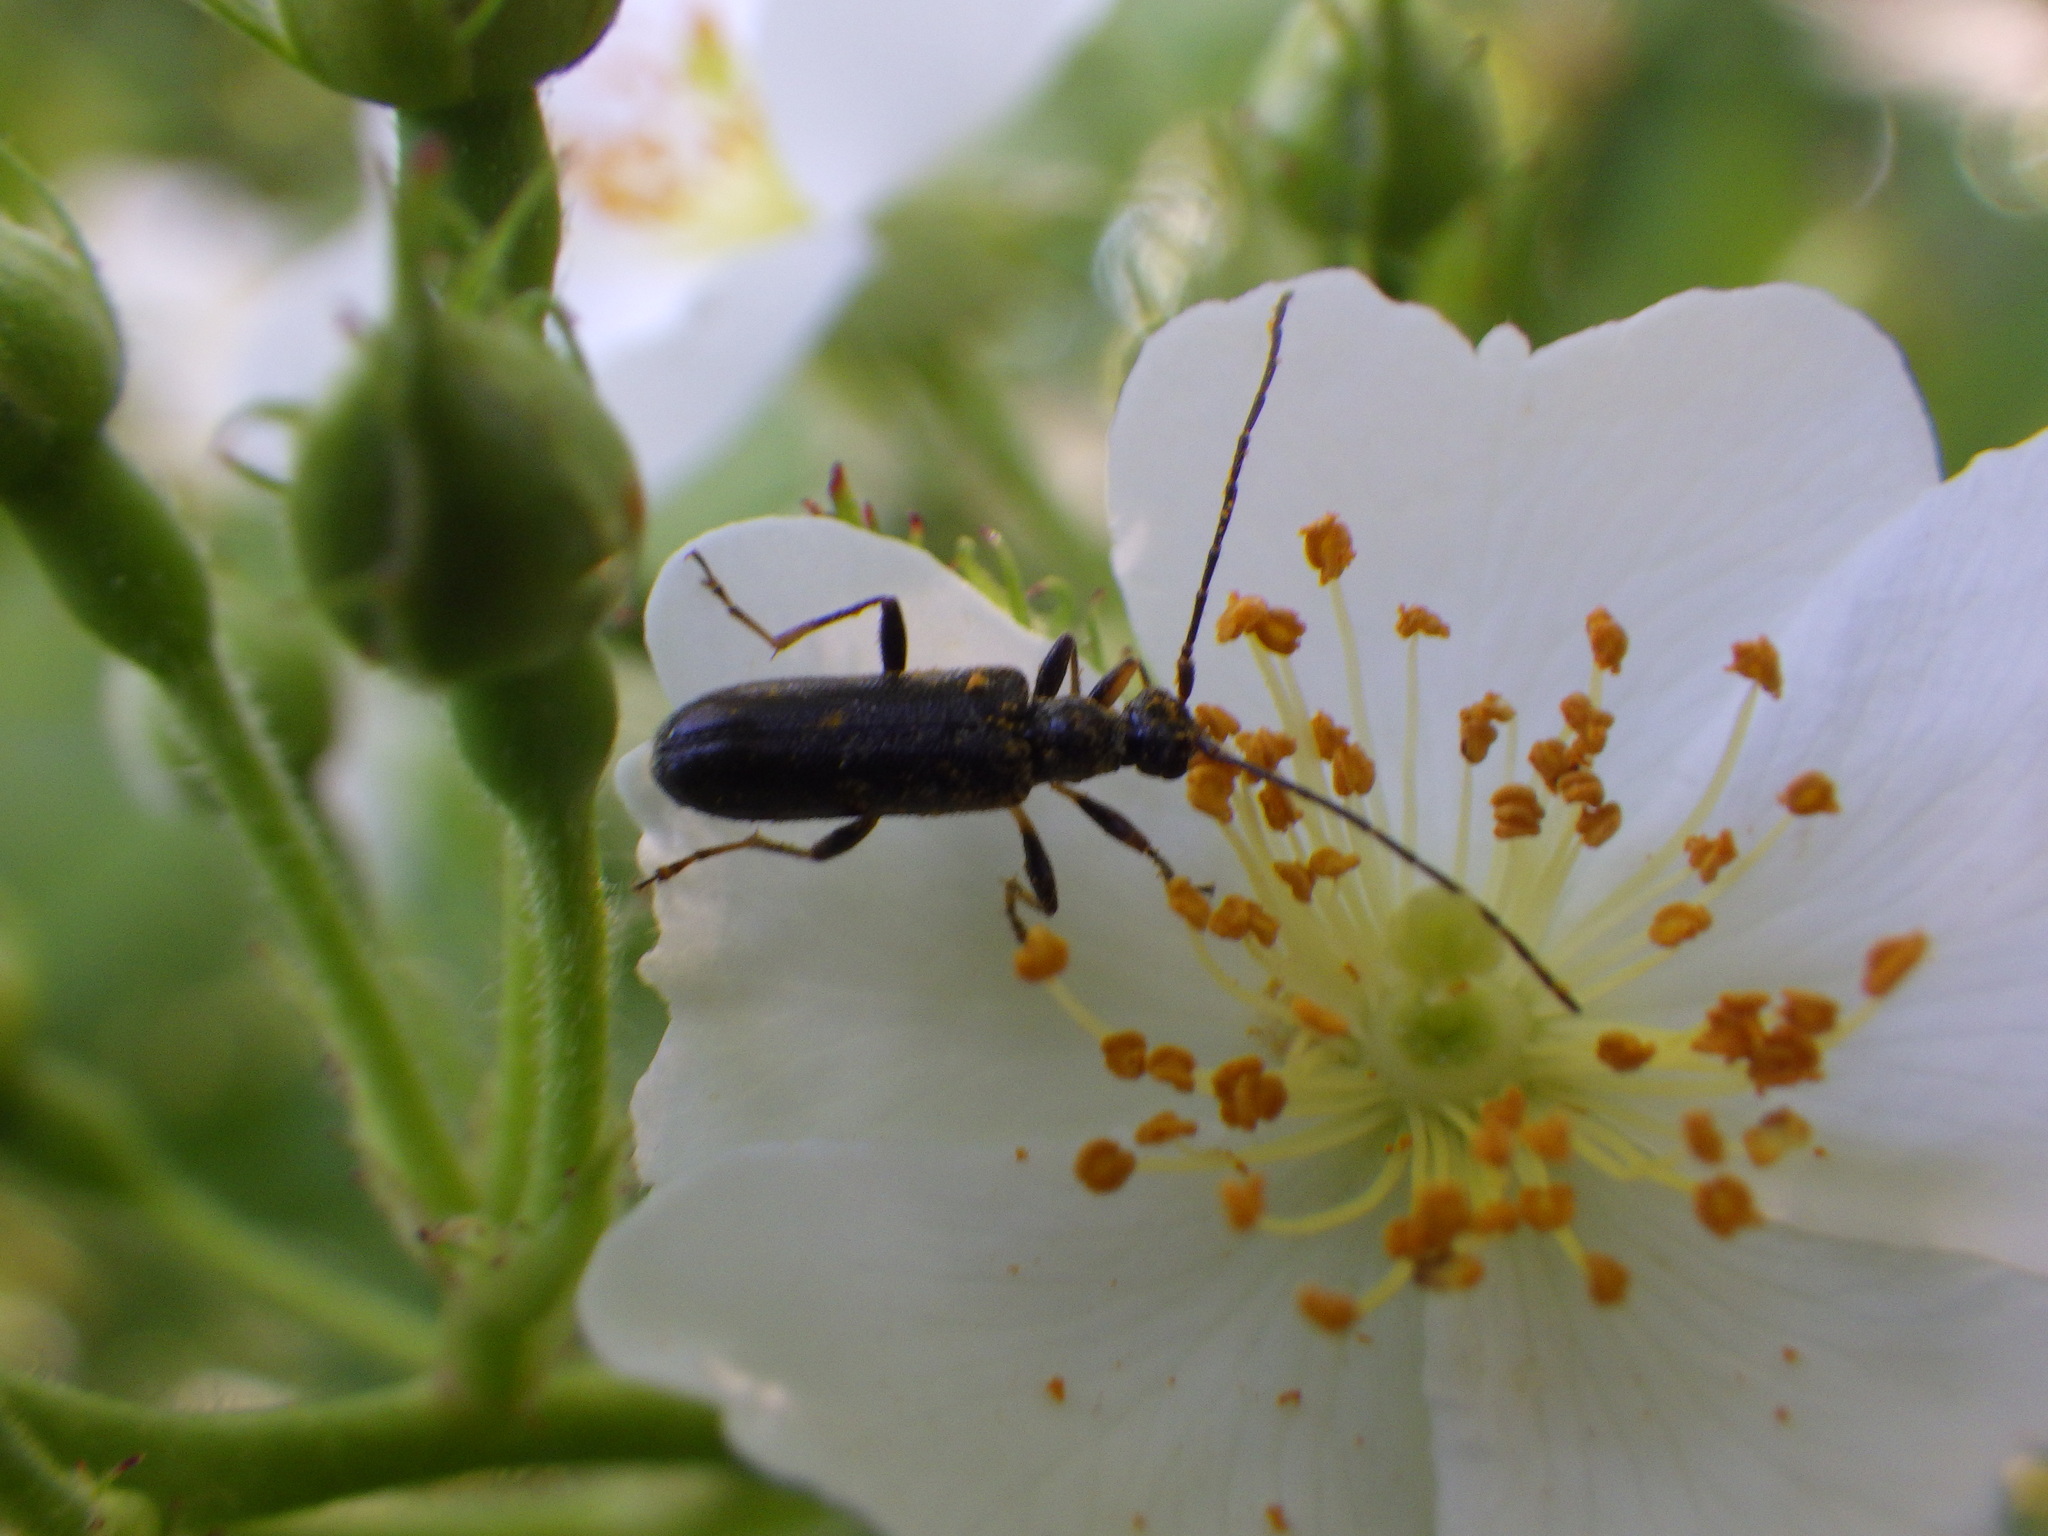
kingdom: Animalia
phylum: Arthropoda
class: Insecta
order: Coleoptera
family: Cerambycidae
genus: Idiopidonia
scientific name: Idiopidonia pedalis
